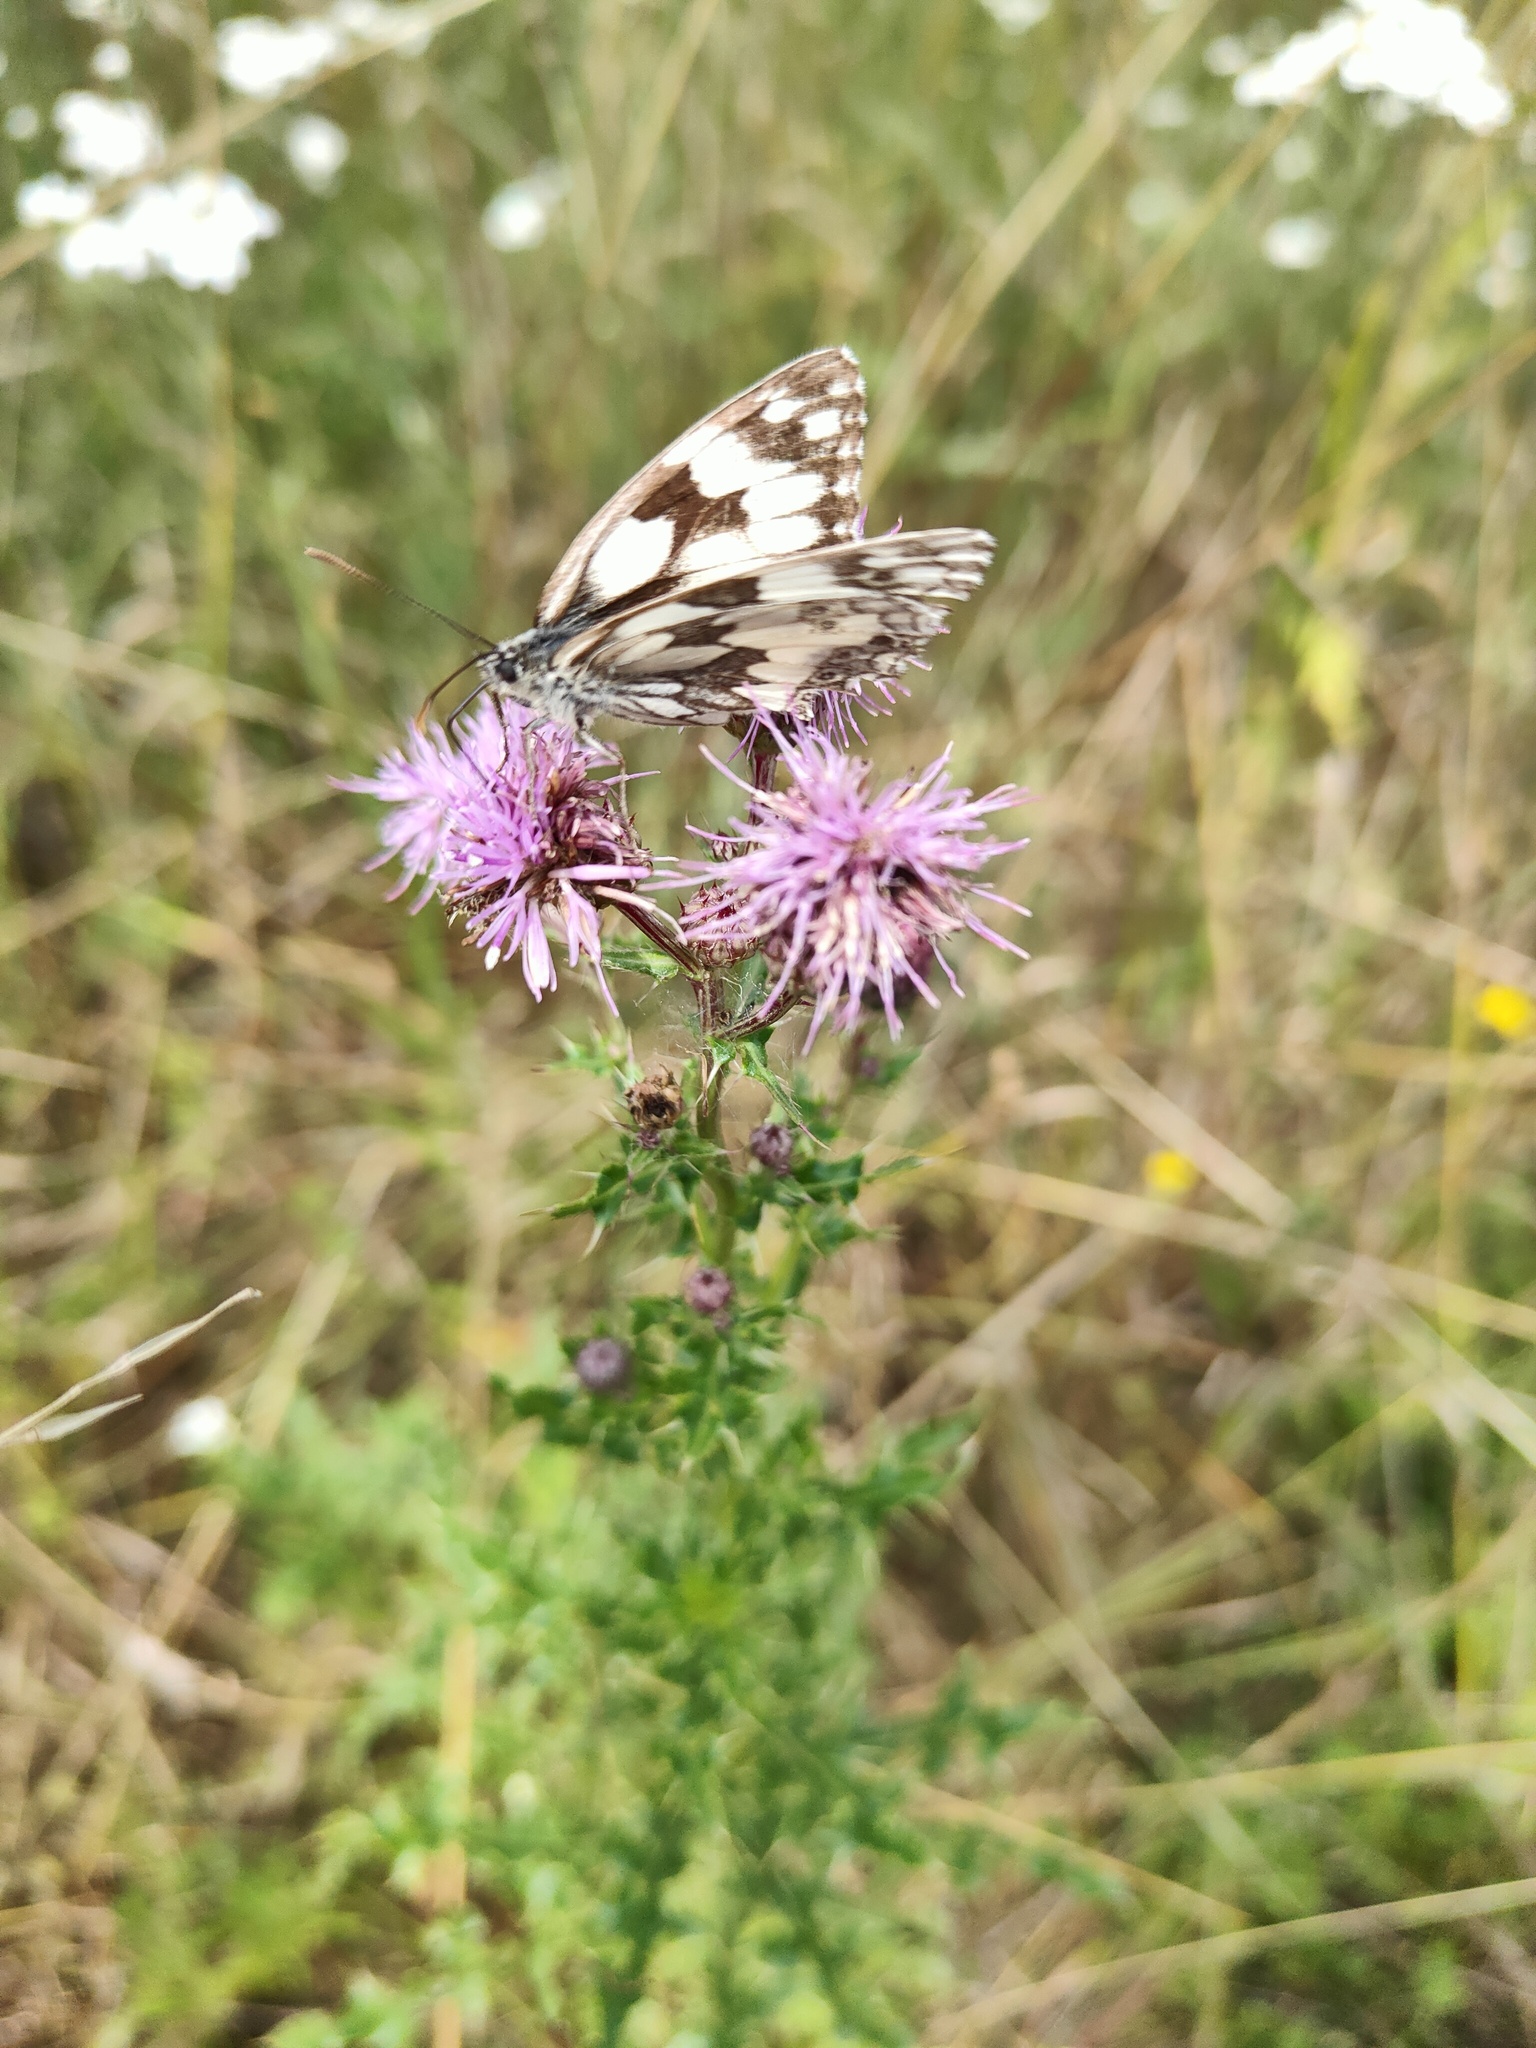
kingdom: Animalia
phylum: Arthropoda
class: Insecta
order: Lepidoptera
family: Nymphalidae
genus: Melanargia
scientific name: Melanargia galathea
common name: Marbled white
